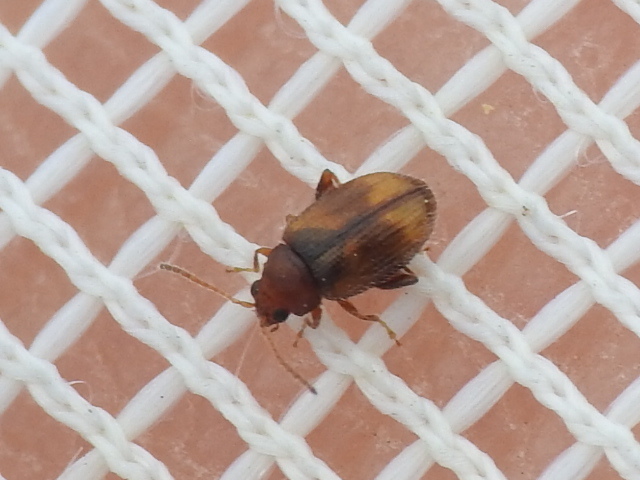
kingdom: Animalia
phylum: Arthropoda
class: Insecta
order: Coleoptera
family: Chrysomelidae
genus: Epitrix
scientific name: Epitrix hirtipennis
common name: Tobacco flea beetle
